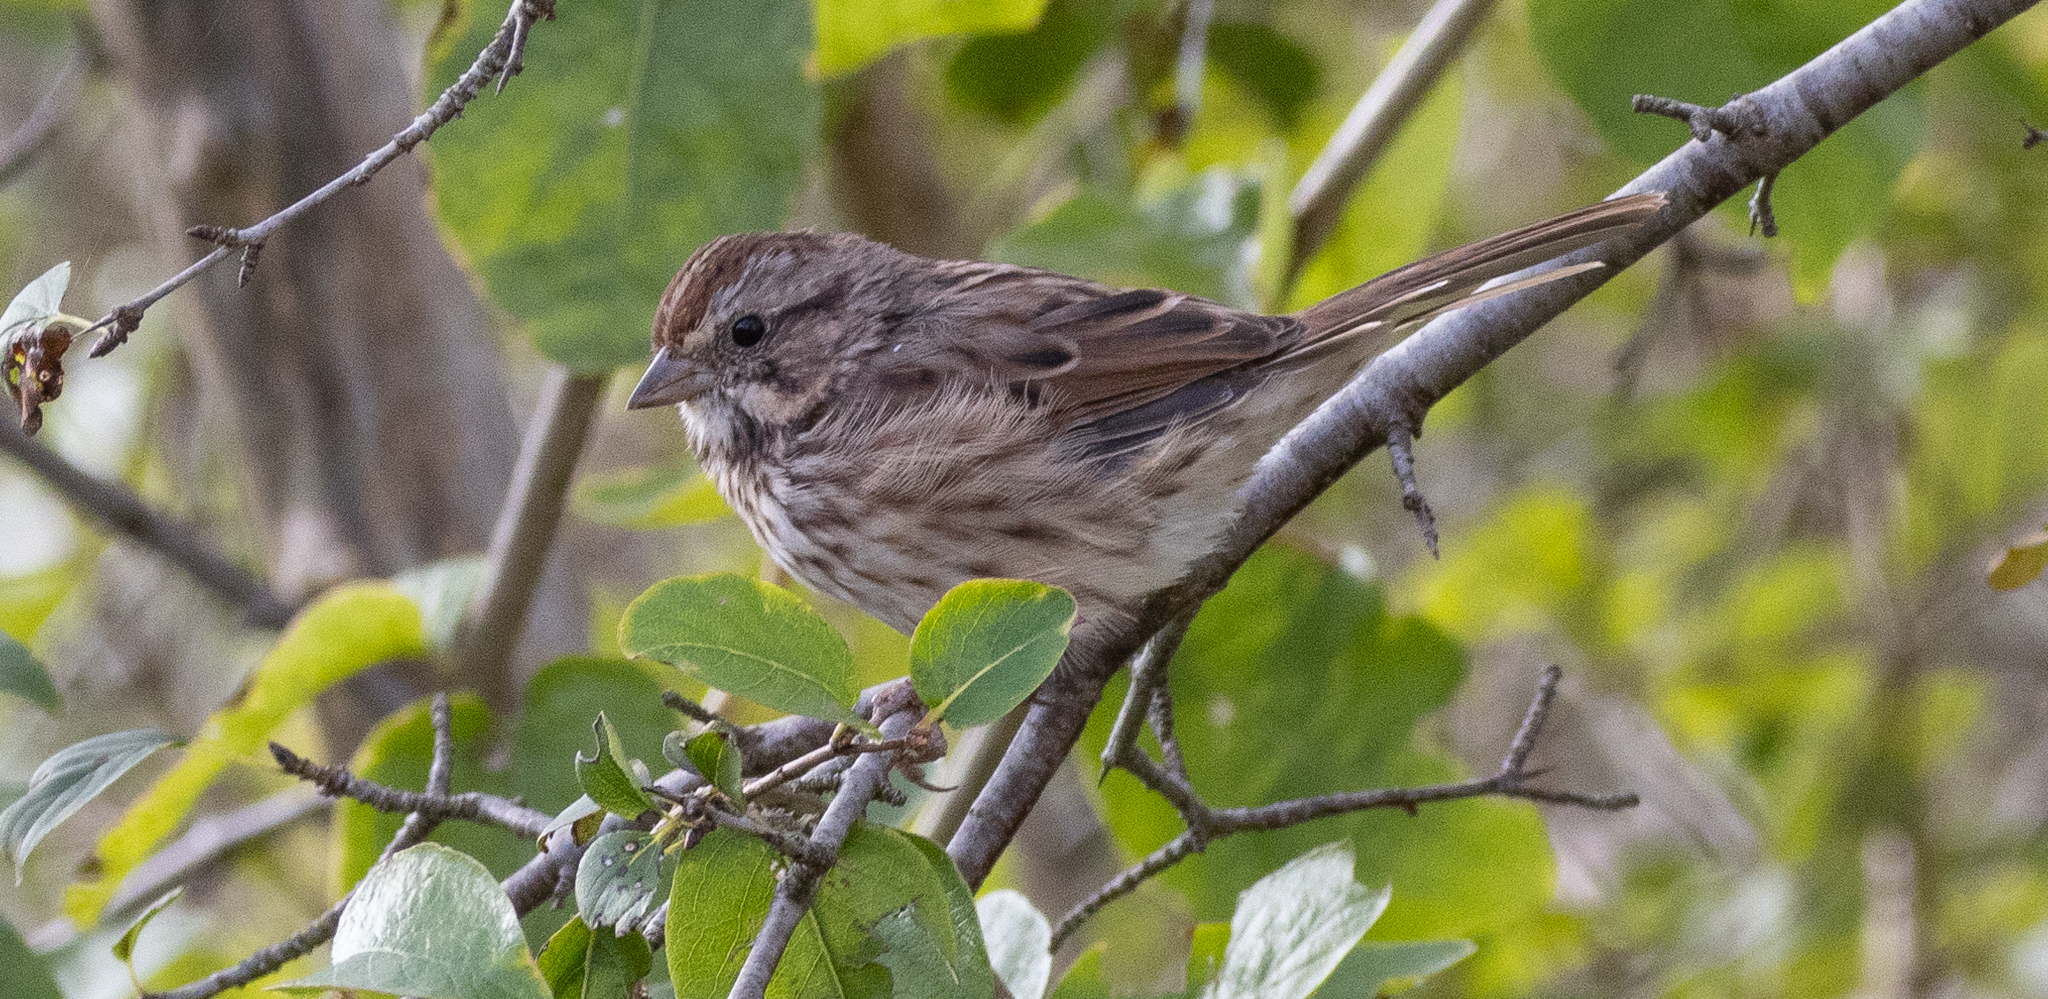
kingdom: Animalia
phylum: Chordata
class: Aves
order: Passeriformes
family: Passerellidae
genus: Melospiza
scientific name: Melospiza melodia
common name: Song sparrow
